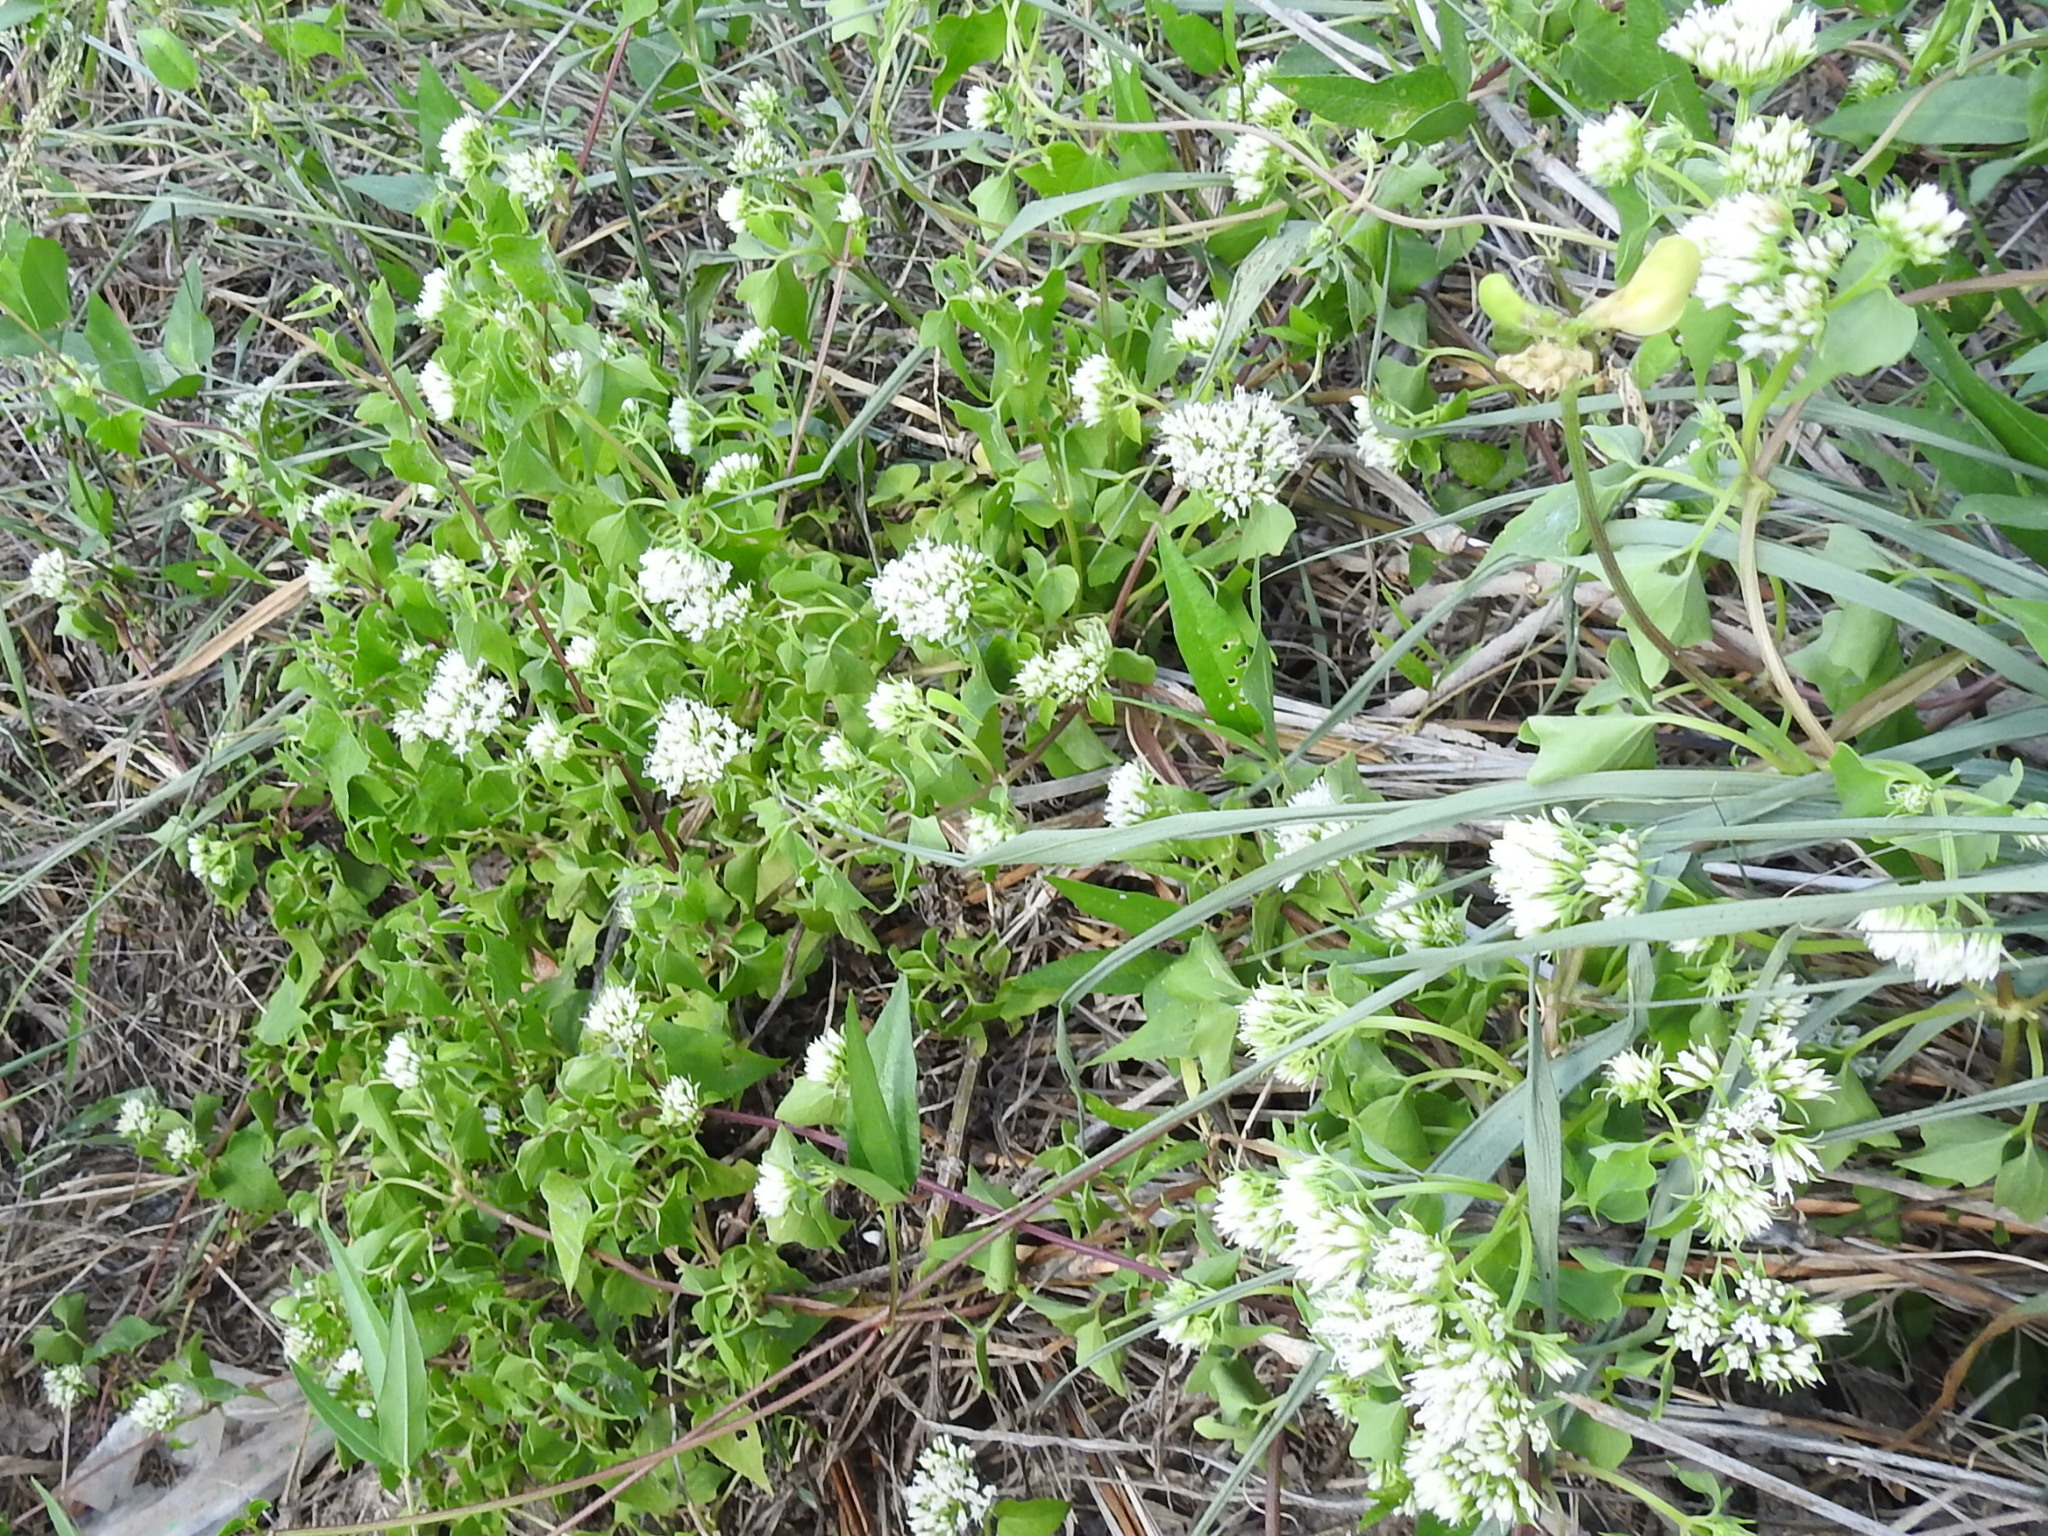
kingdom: Plantae
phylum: Tracheophyta
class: Magnoliopsida
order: Asterales
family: Asteraceae
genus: Mikania
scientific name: Mikania scandens
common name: Climbing hempvine
